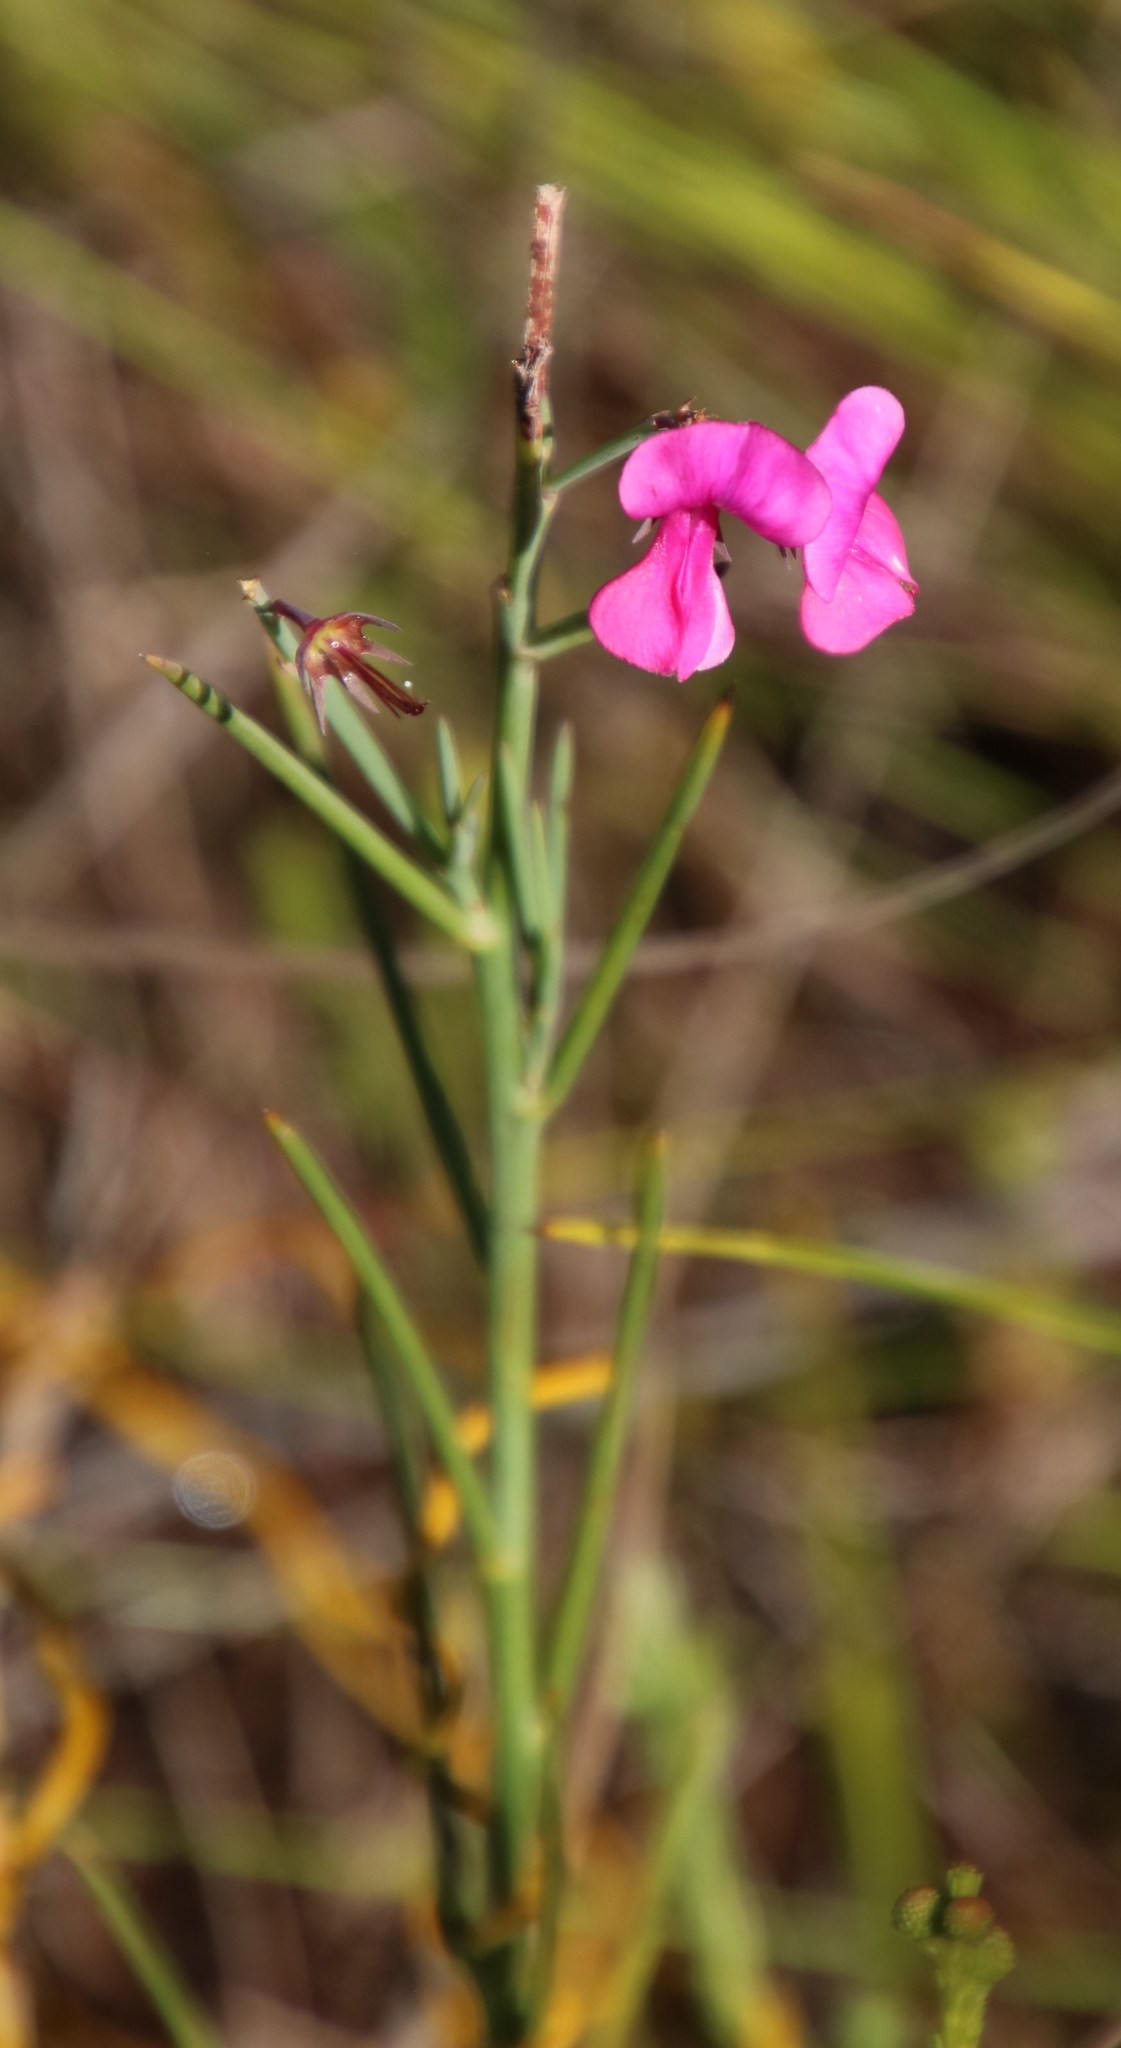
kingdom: Plantae
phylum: Tracheophyta
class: Magnoliopsida
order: Fabales
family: Fabaceae
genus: Indigofera
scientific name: Indigofera filifolia
